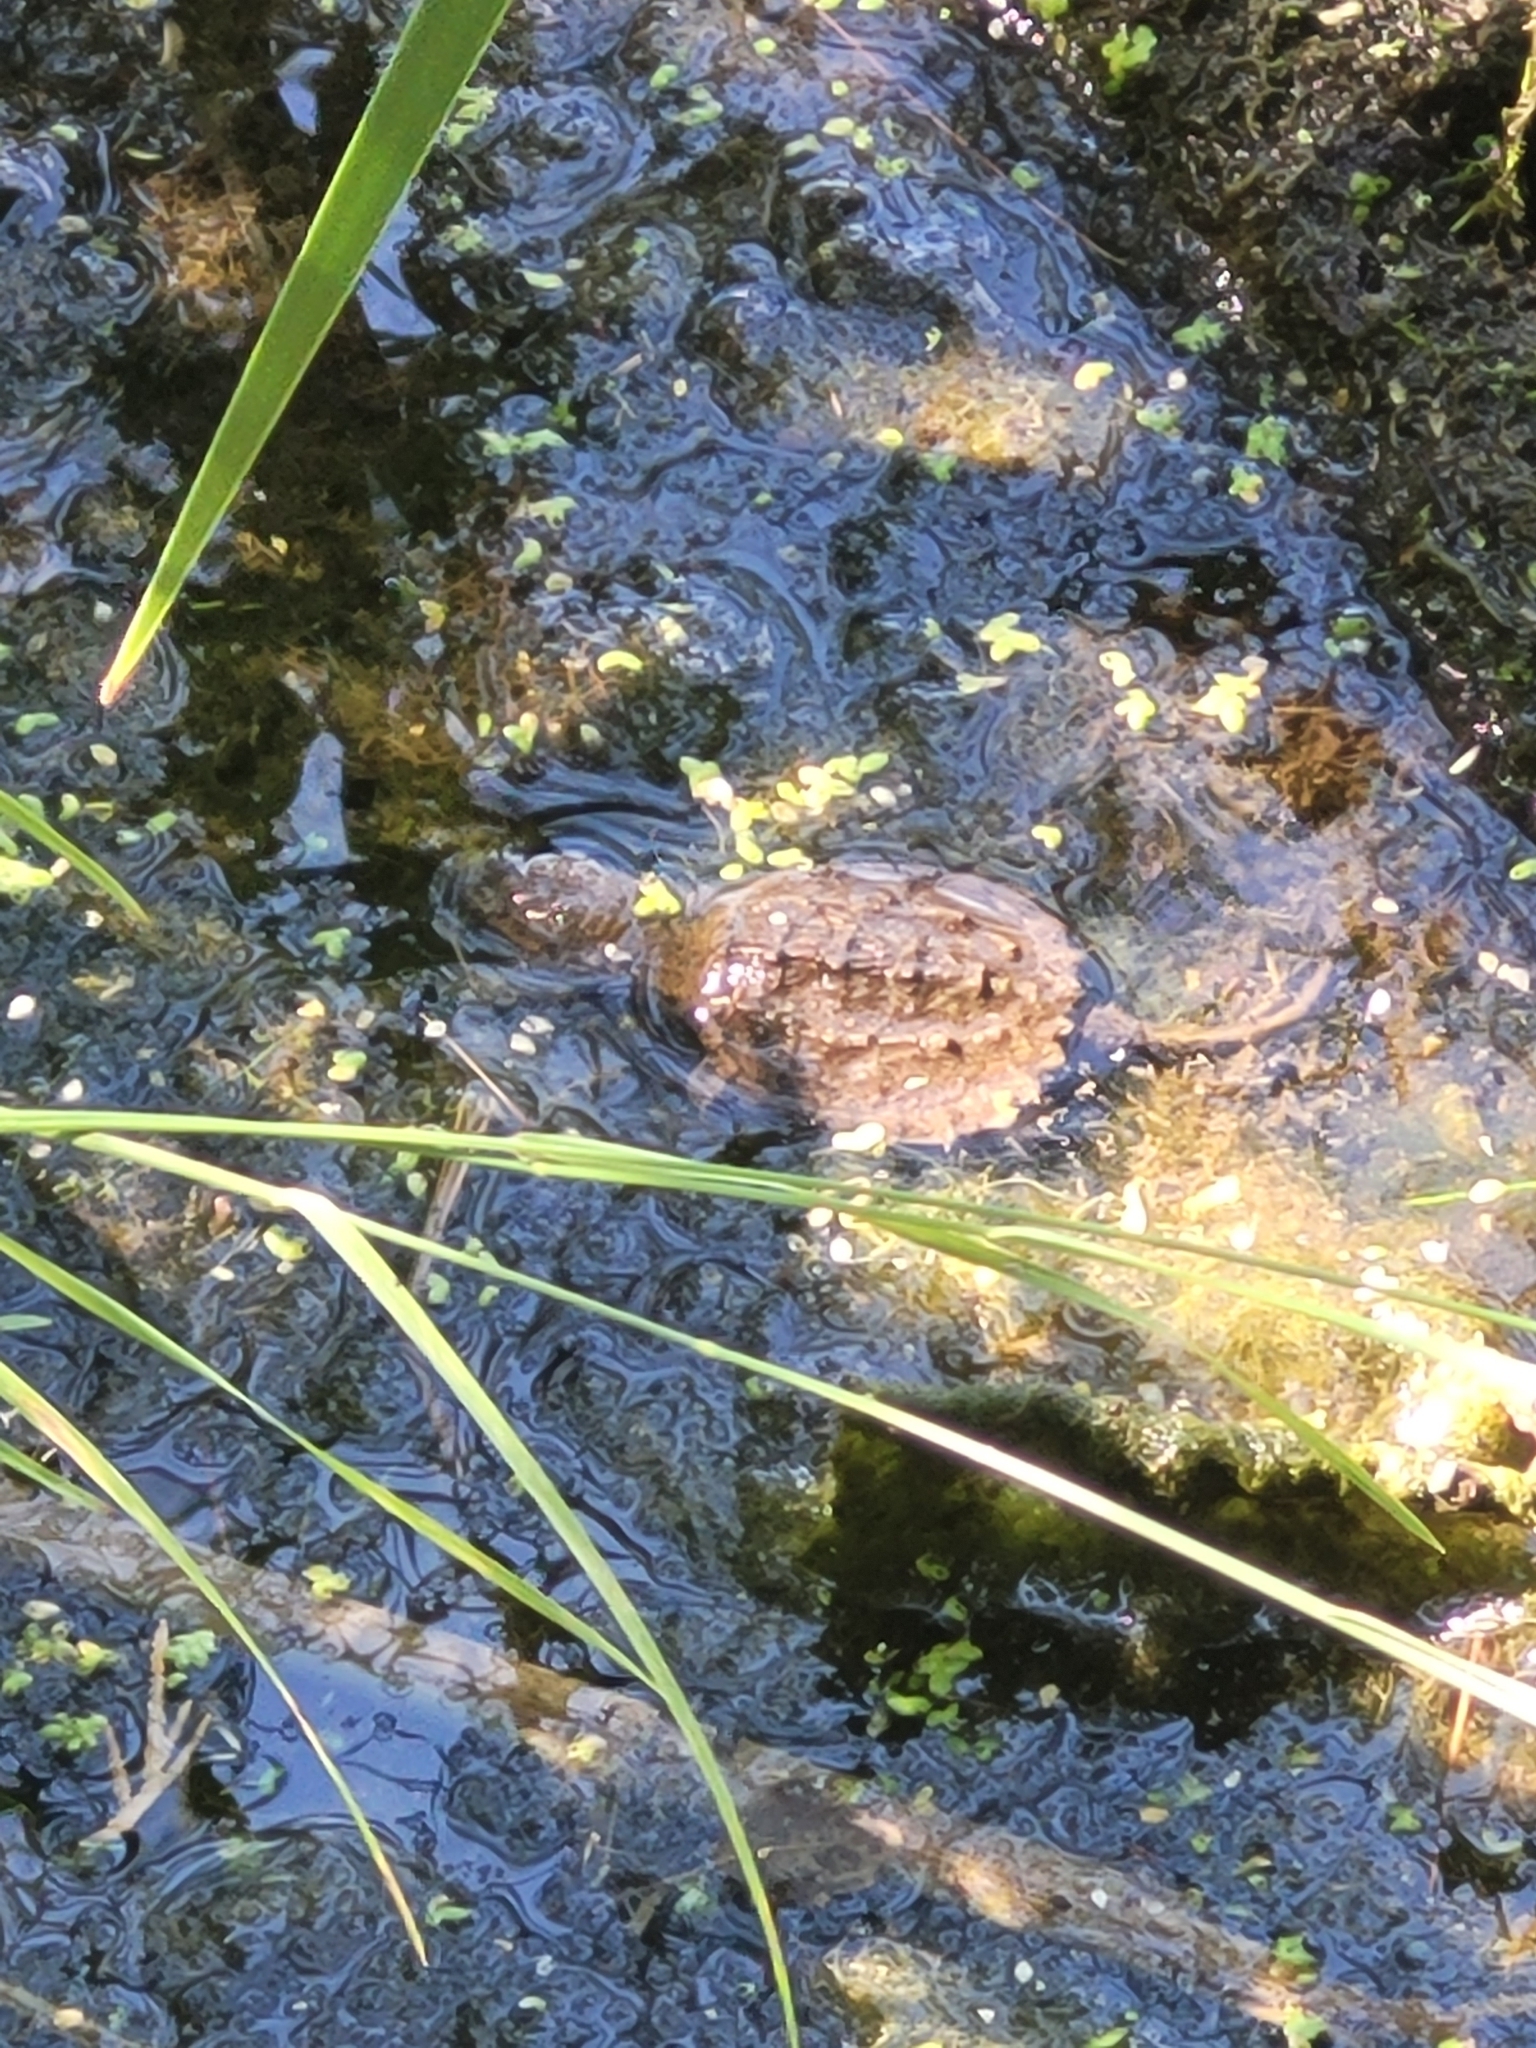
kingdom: Animalia
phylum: Chordata
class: Testudines
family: Chelydridae
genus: Chelydra
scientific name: Chelydra serpentina
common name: Common snapping turtle
